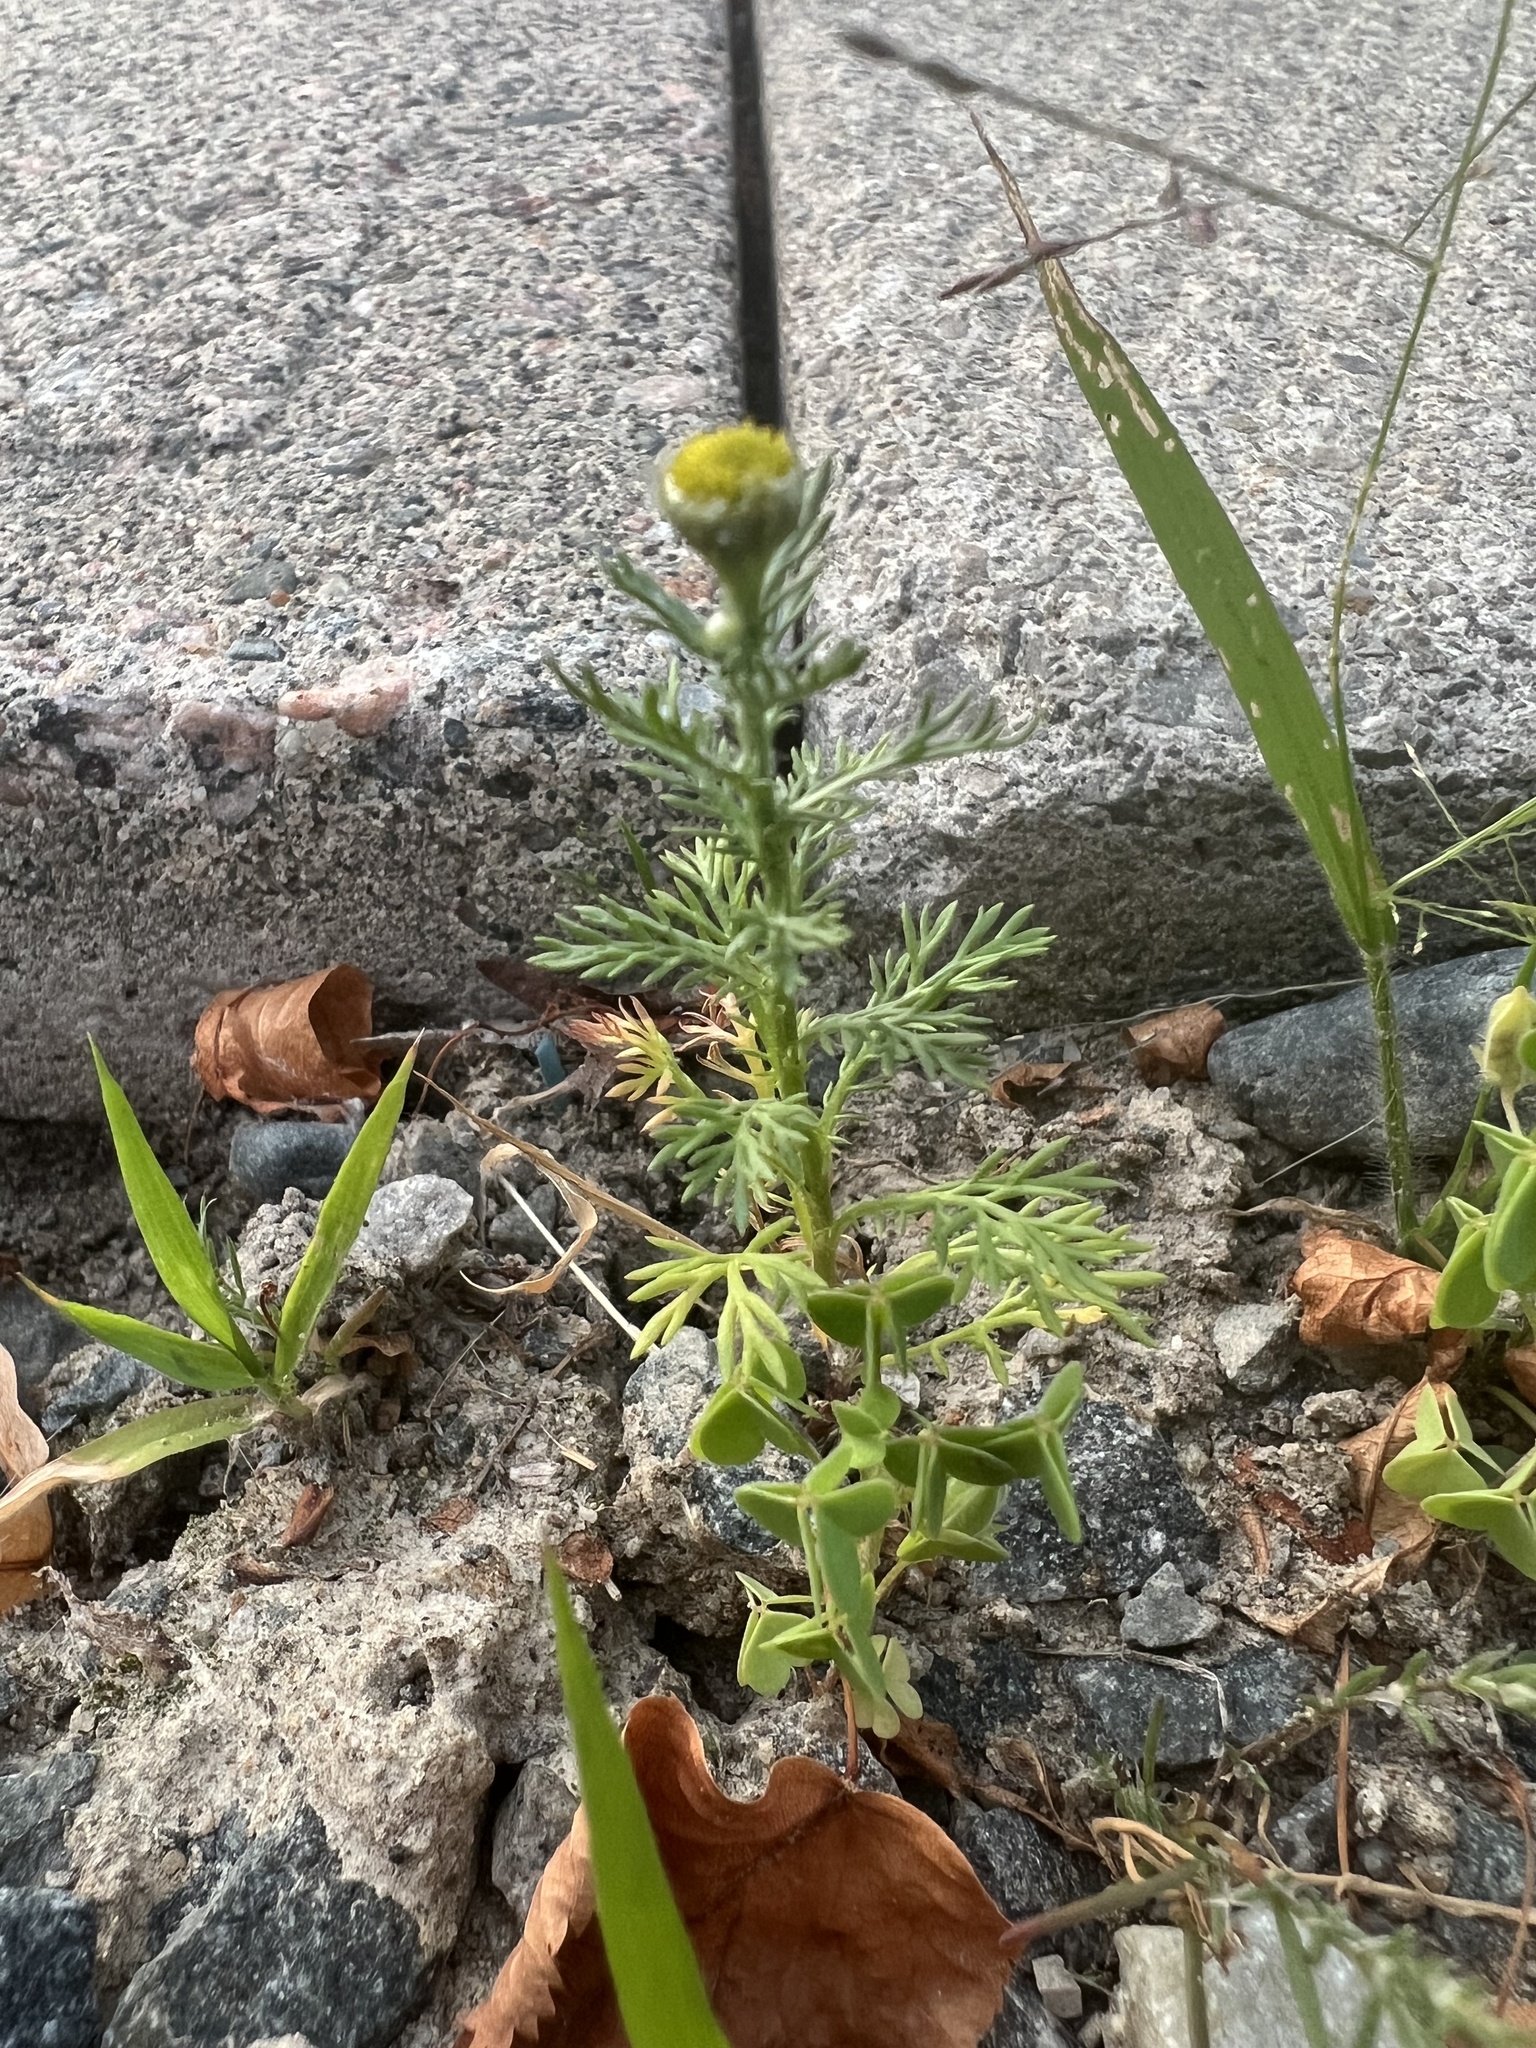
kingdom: Plantae
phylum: Tracheophyta
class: Magnoliopsida
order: Asterales
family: Asteraceae
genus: Matricaria
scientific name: Matricaria discoidea
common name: Disc mayweed
